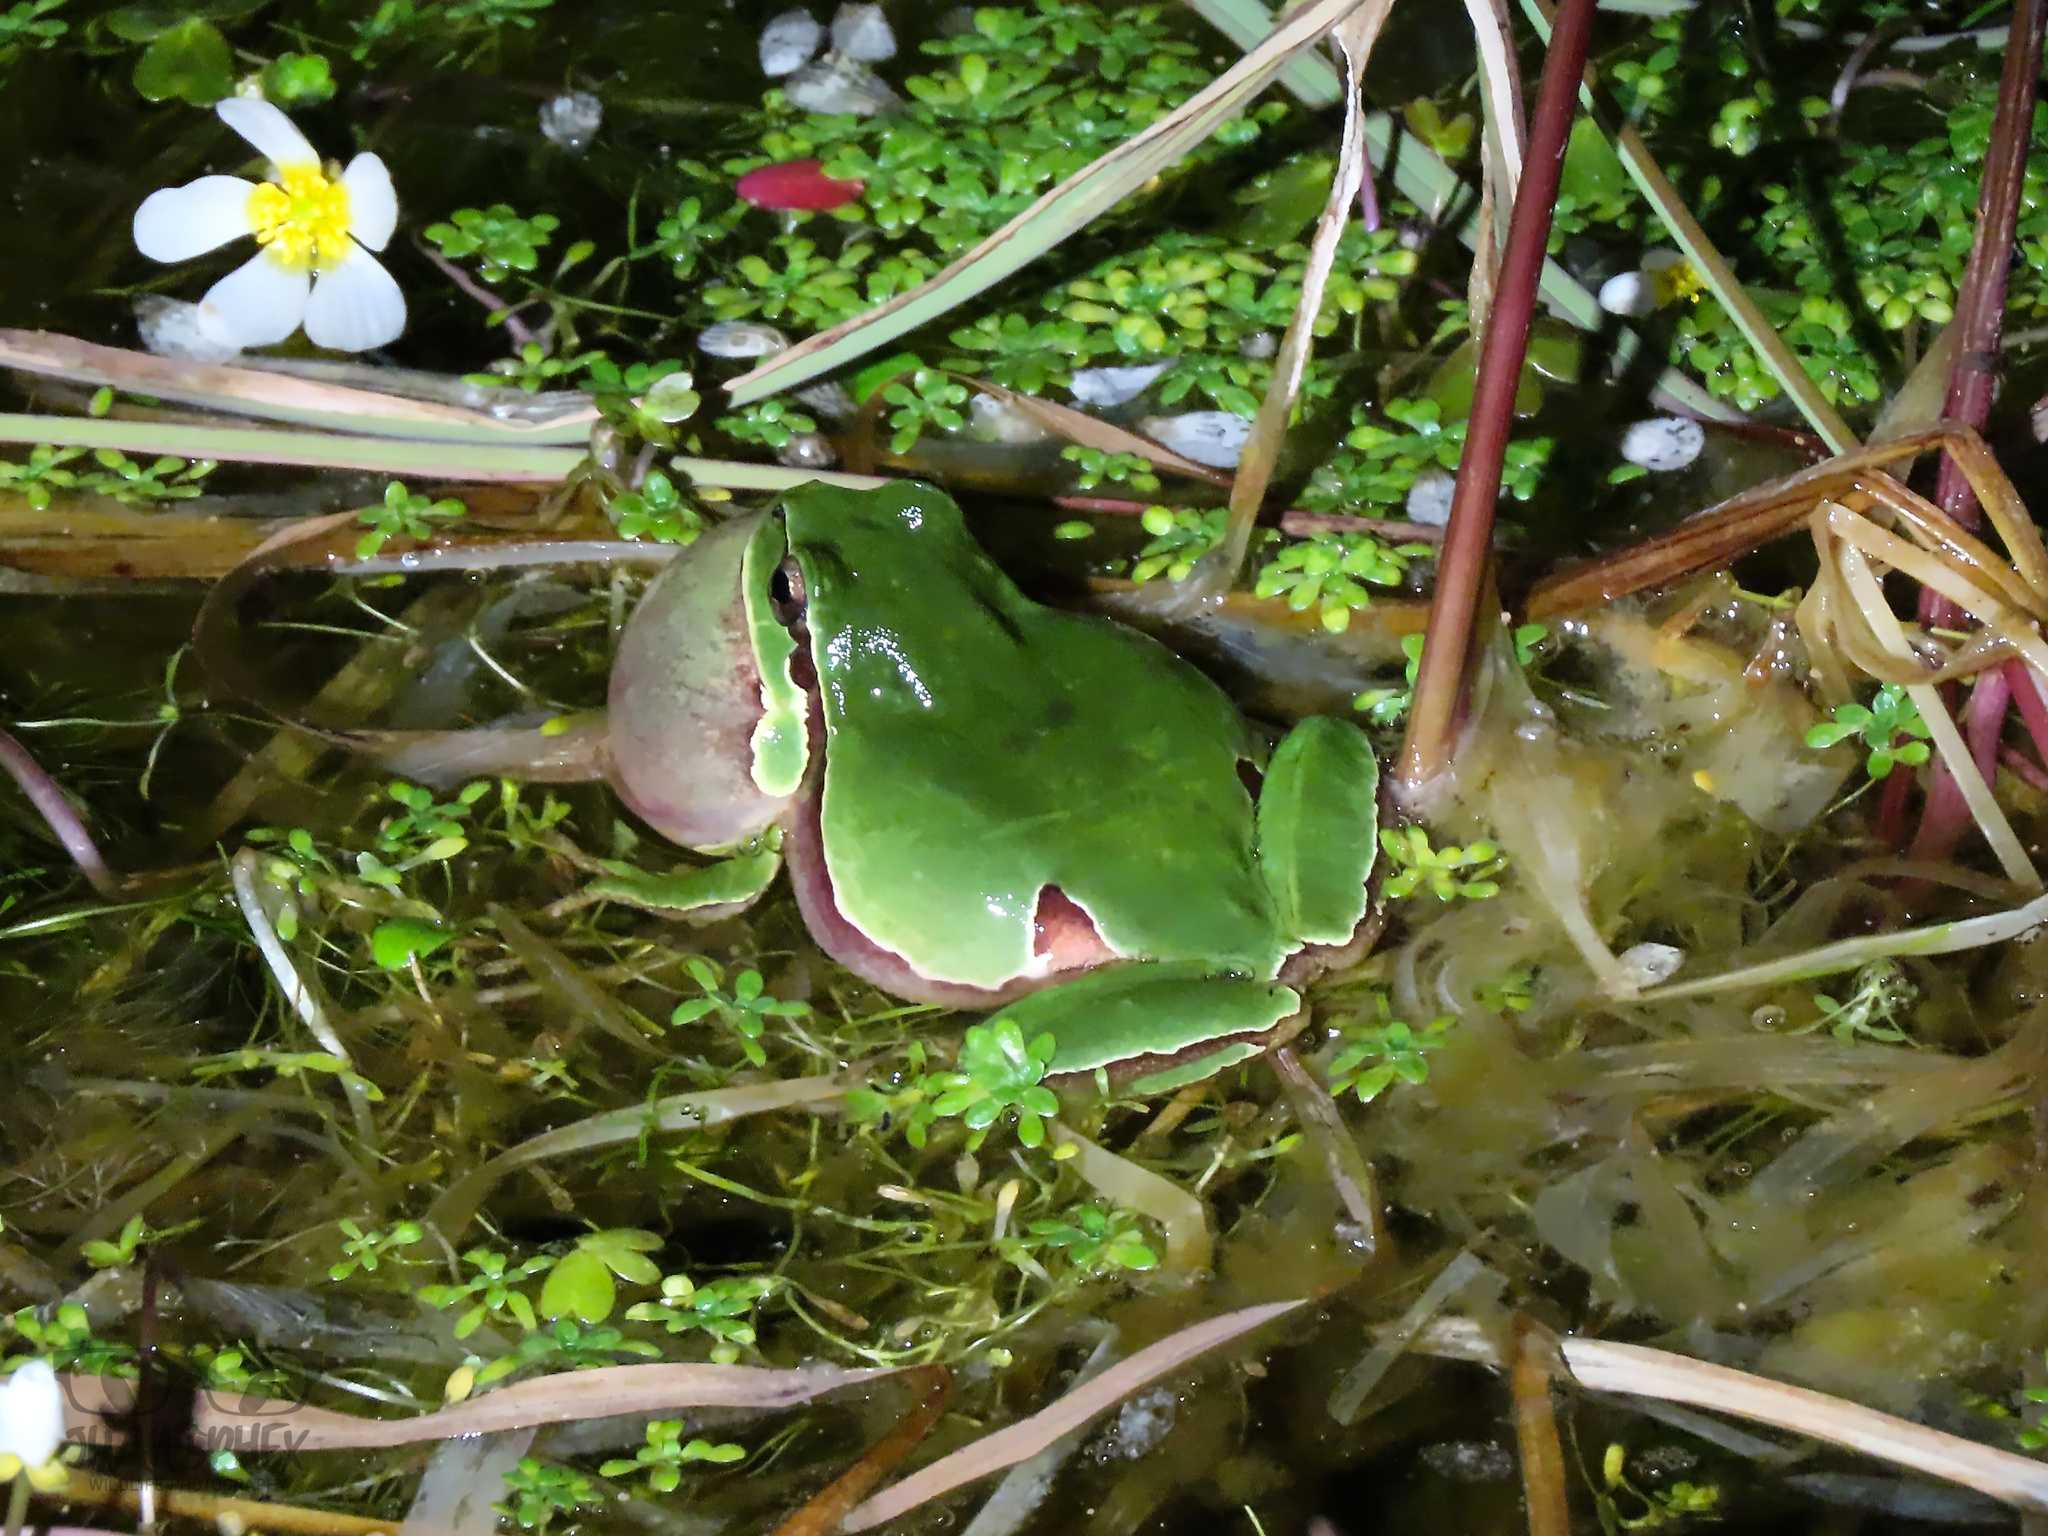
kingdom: Animalia
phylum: Chordata
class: Amphibia
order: Anura
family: Hylidae
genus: Hyla
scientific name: Hyla molleri
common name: Iberian tree frog
